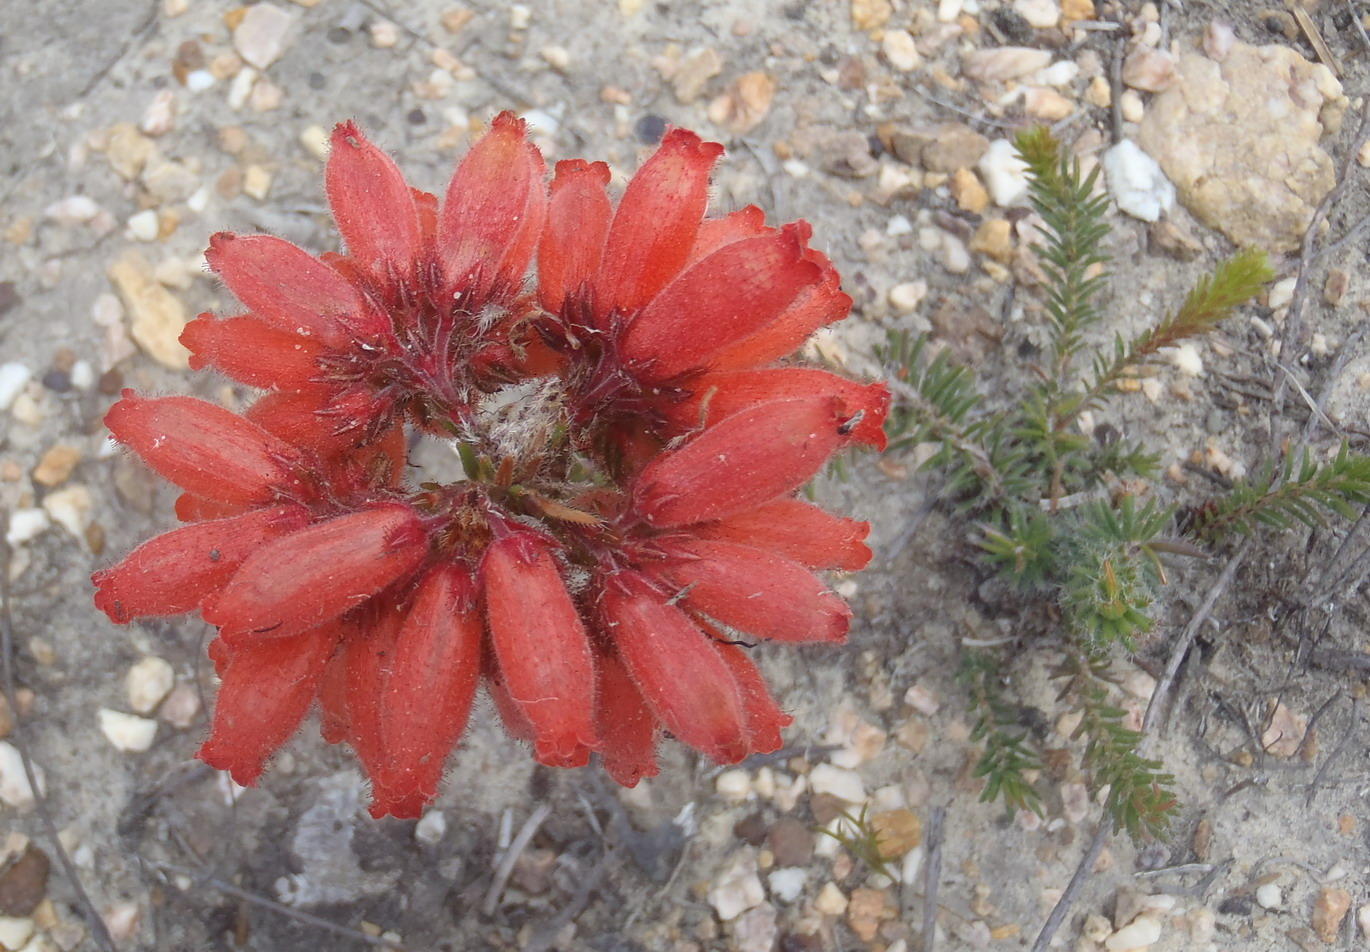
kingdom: Plantae
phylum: Tracheophyta
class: Magnoliopsida
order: Ericales
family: Ericaceae
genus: Erica
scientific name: Erica cerinthoides
